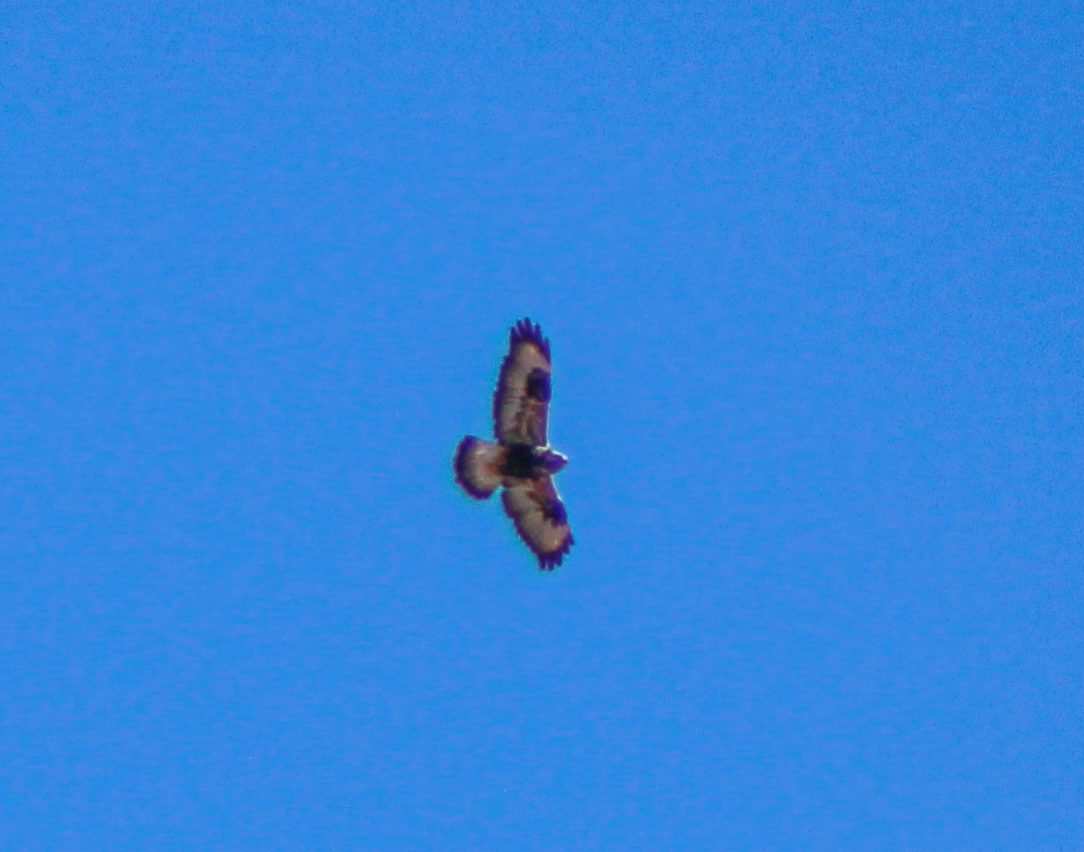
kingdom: Animalia
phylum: Chordata
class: Aves
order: Accipitriformes
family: Accipitridae
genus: Buteo
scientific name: Buteo lagopus
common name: Rough-legged buzzard
